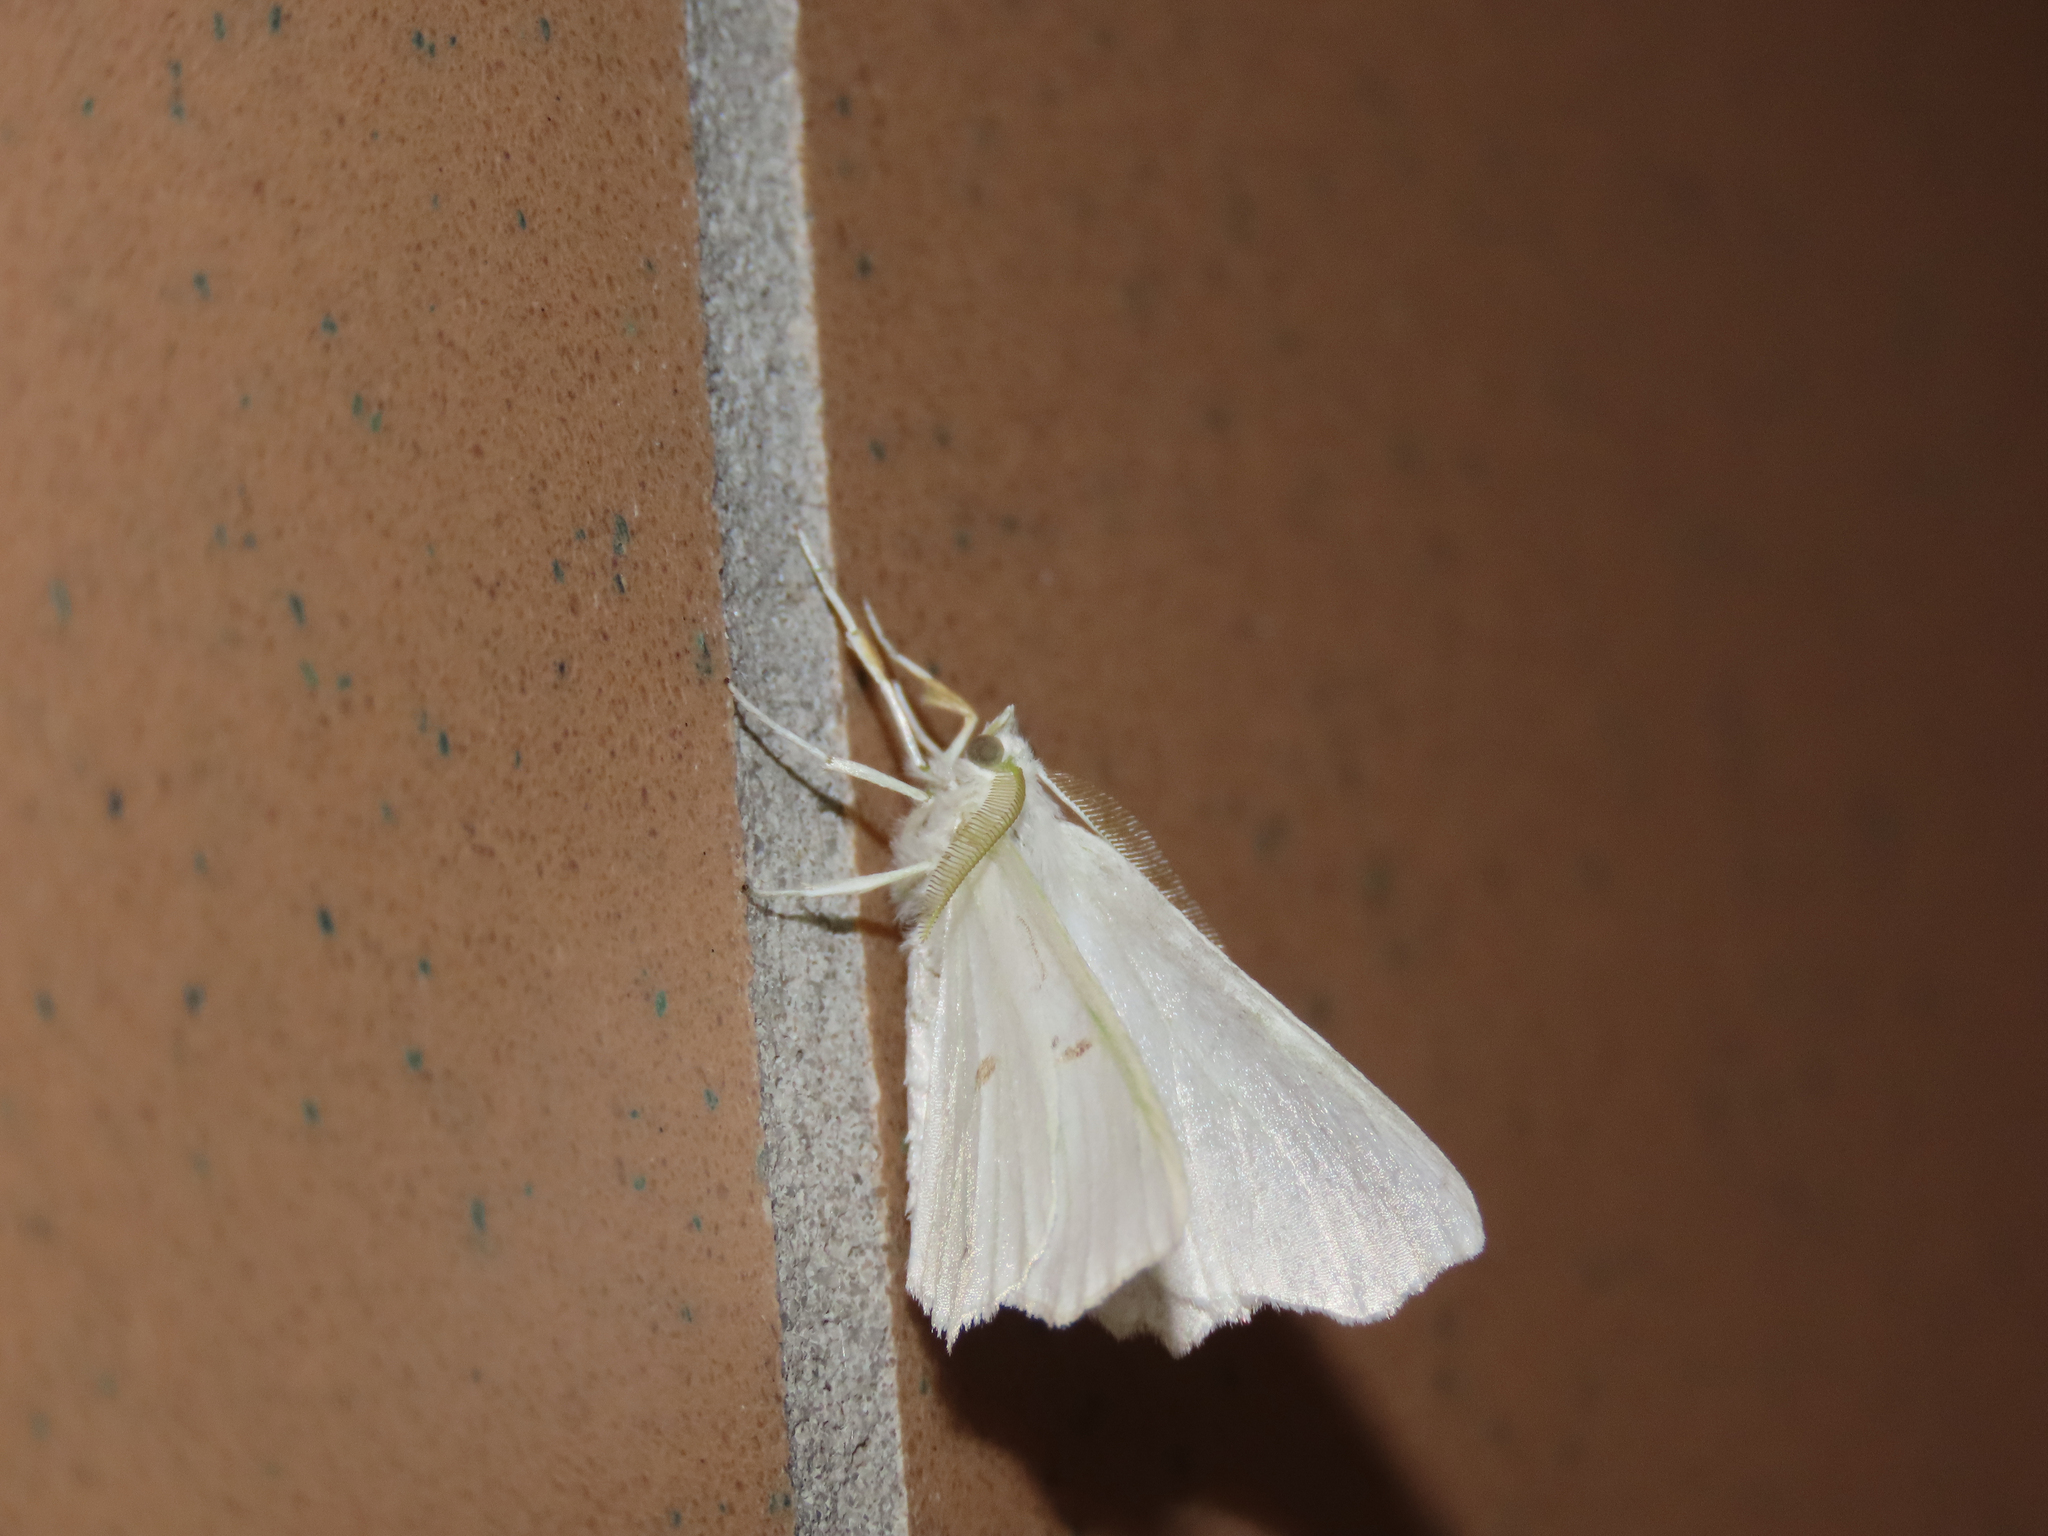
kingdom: Animalia
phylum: Arthropoda
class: Insecta
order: Lepidoptera
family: Geometridae
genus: Ennomos
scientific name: Ennomos subsignaria
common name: Elm spanworm
